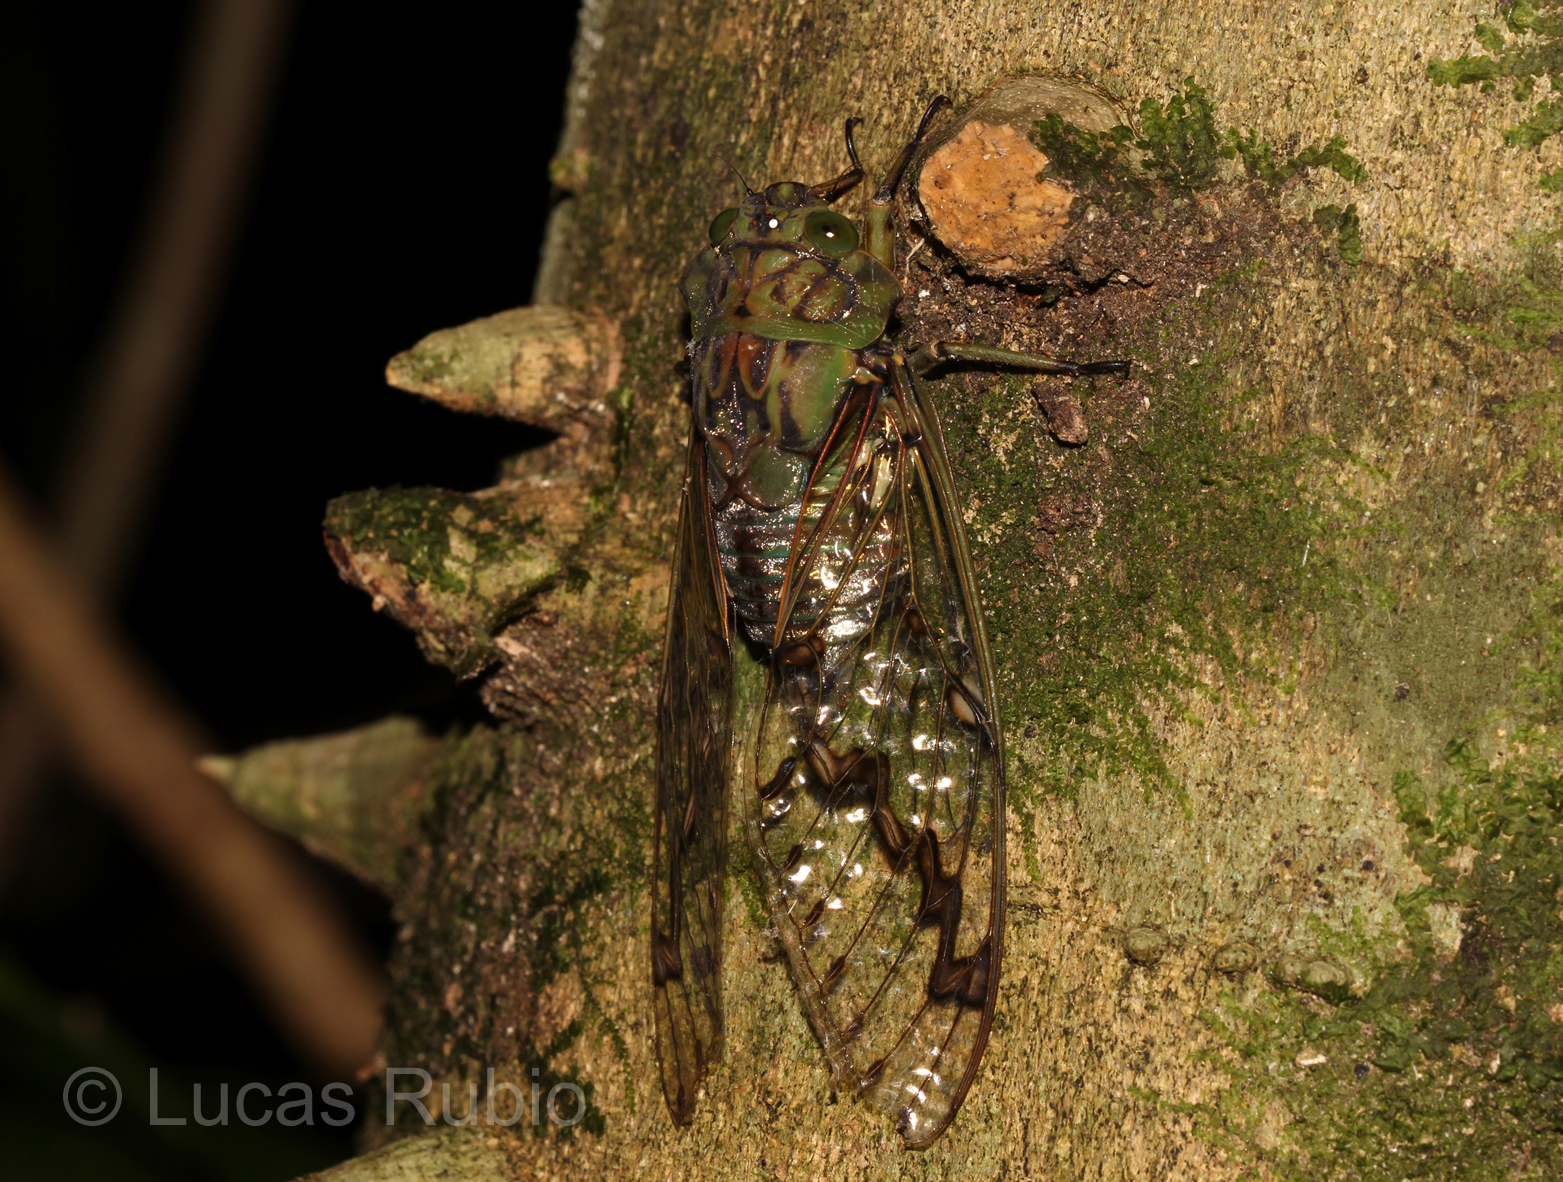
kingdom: Animalia
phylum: Arthropoda
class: Insecta
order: Hemiptera
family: Cicadidae
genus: Zammara
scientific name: Zammara tympanum
